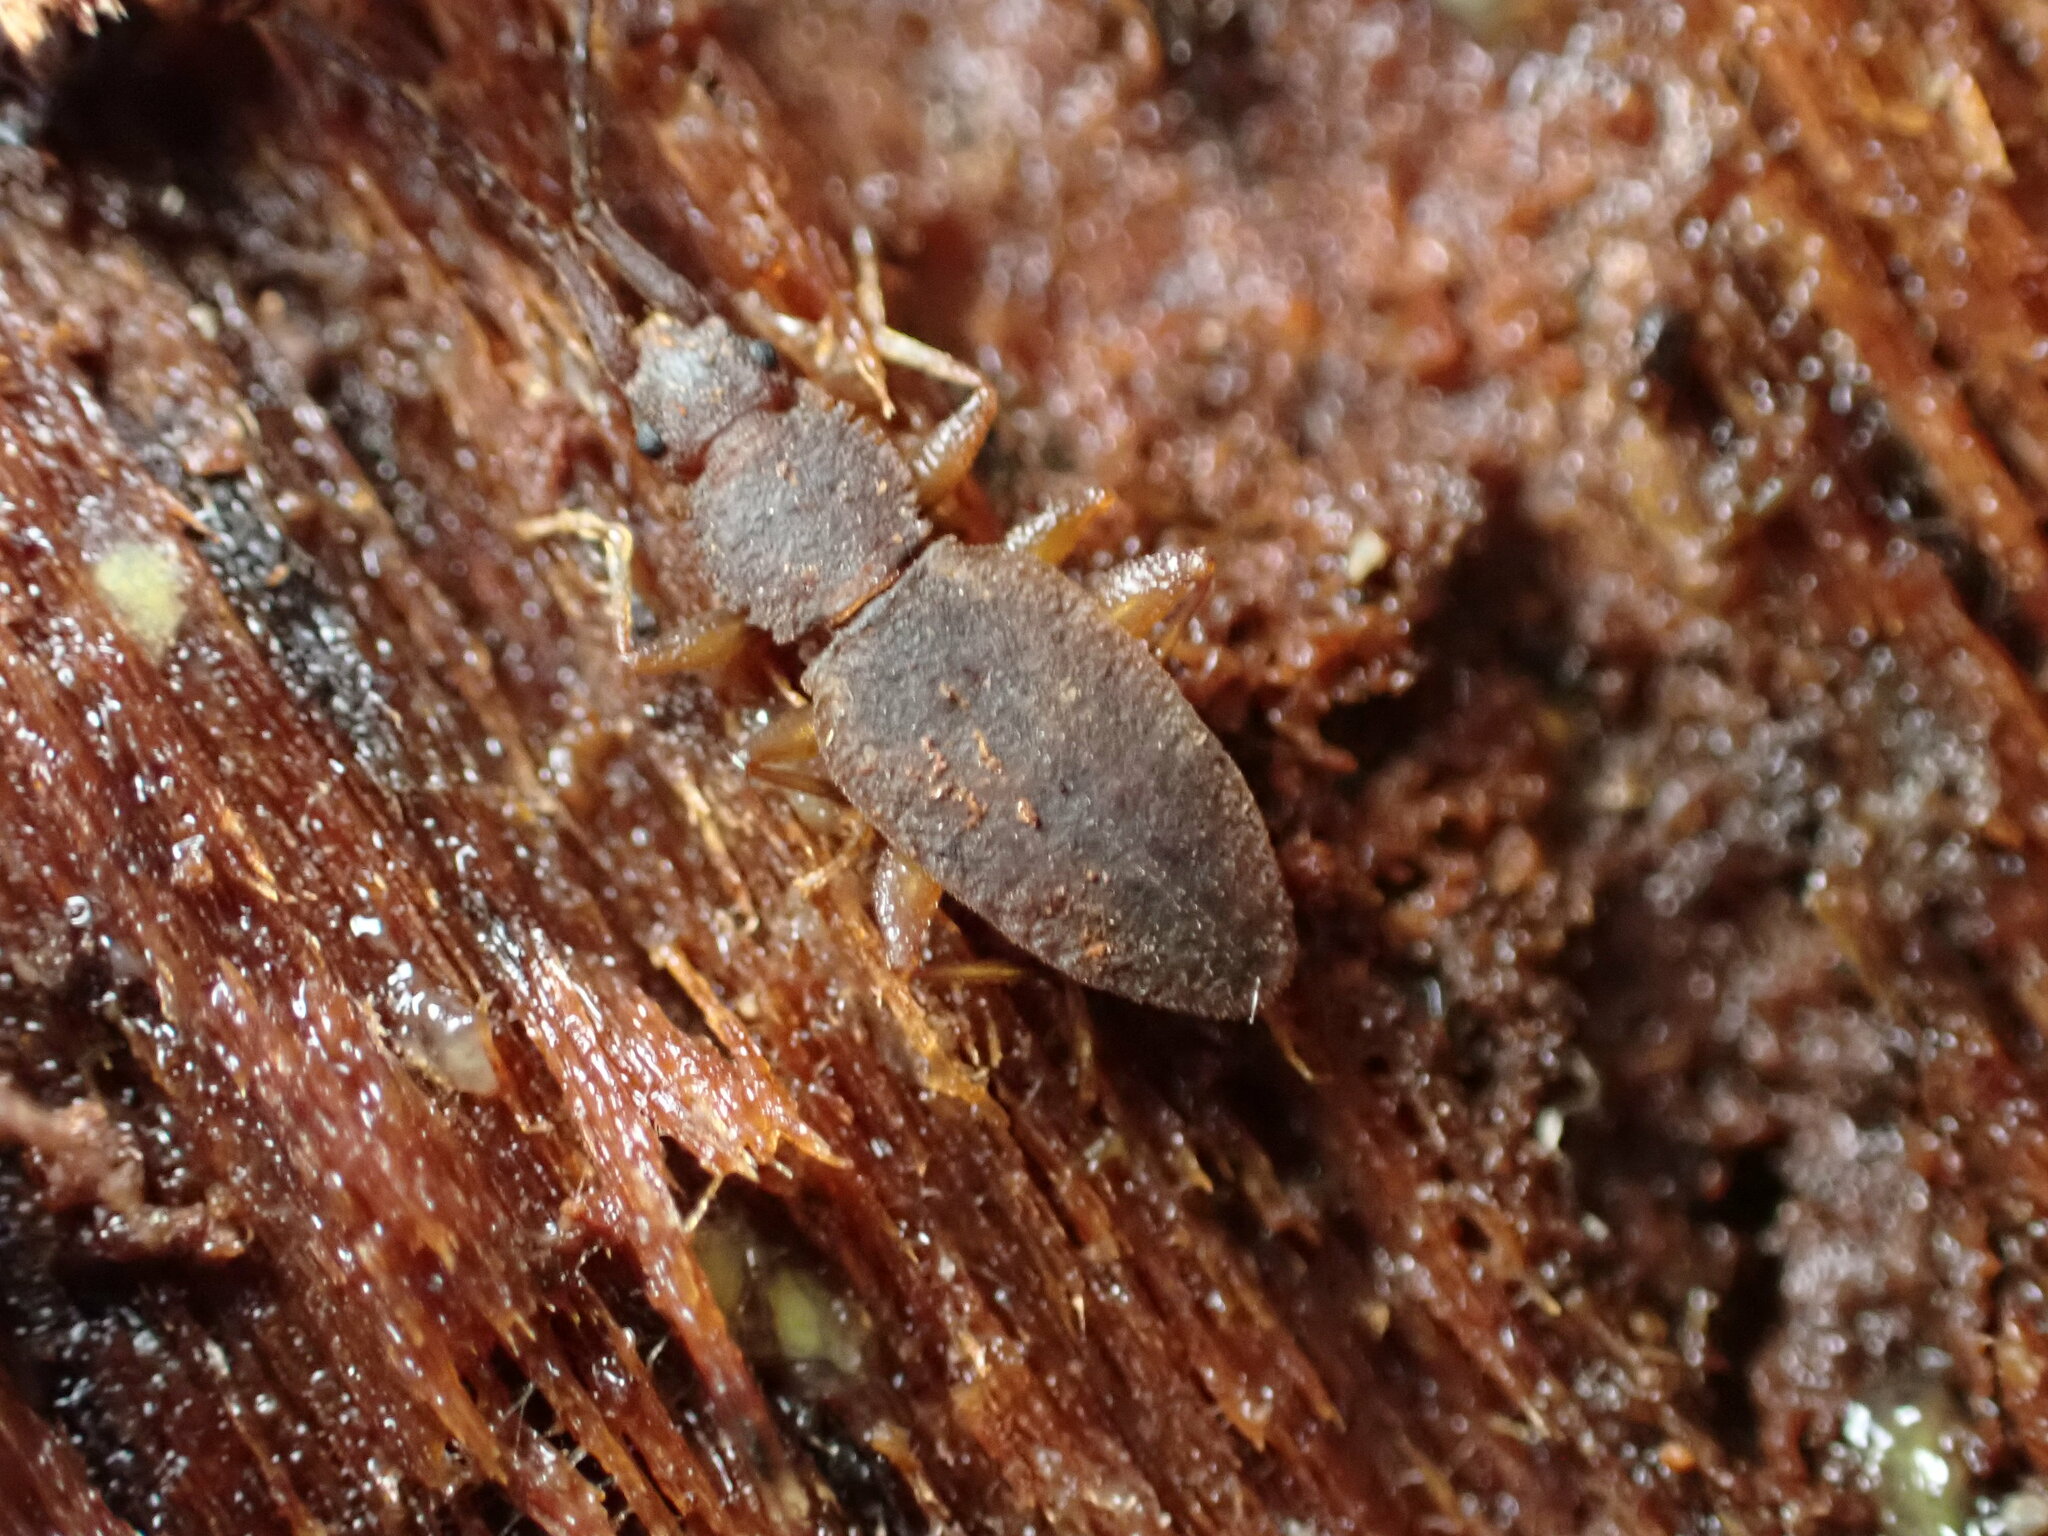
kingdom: Animalia
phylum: Arthropoda
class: Insecta
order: Coleoptera
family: Silvanidae
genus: Brontopriscus
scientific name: Brontopriscus
